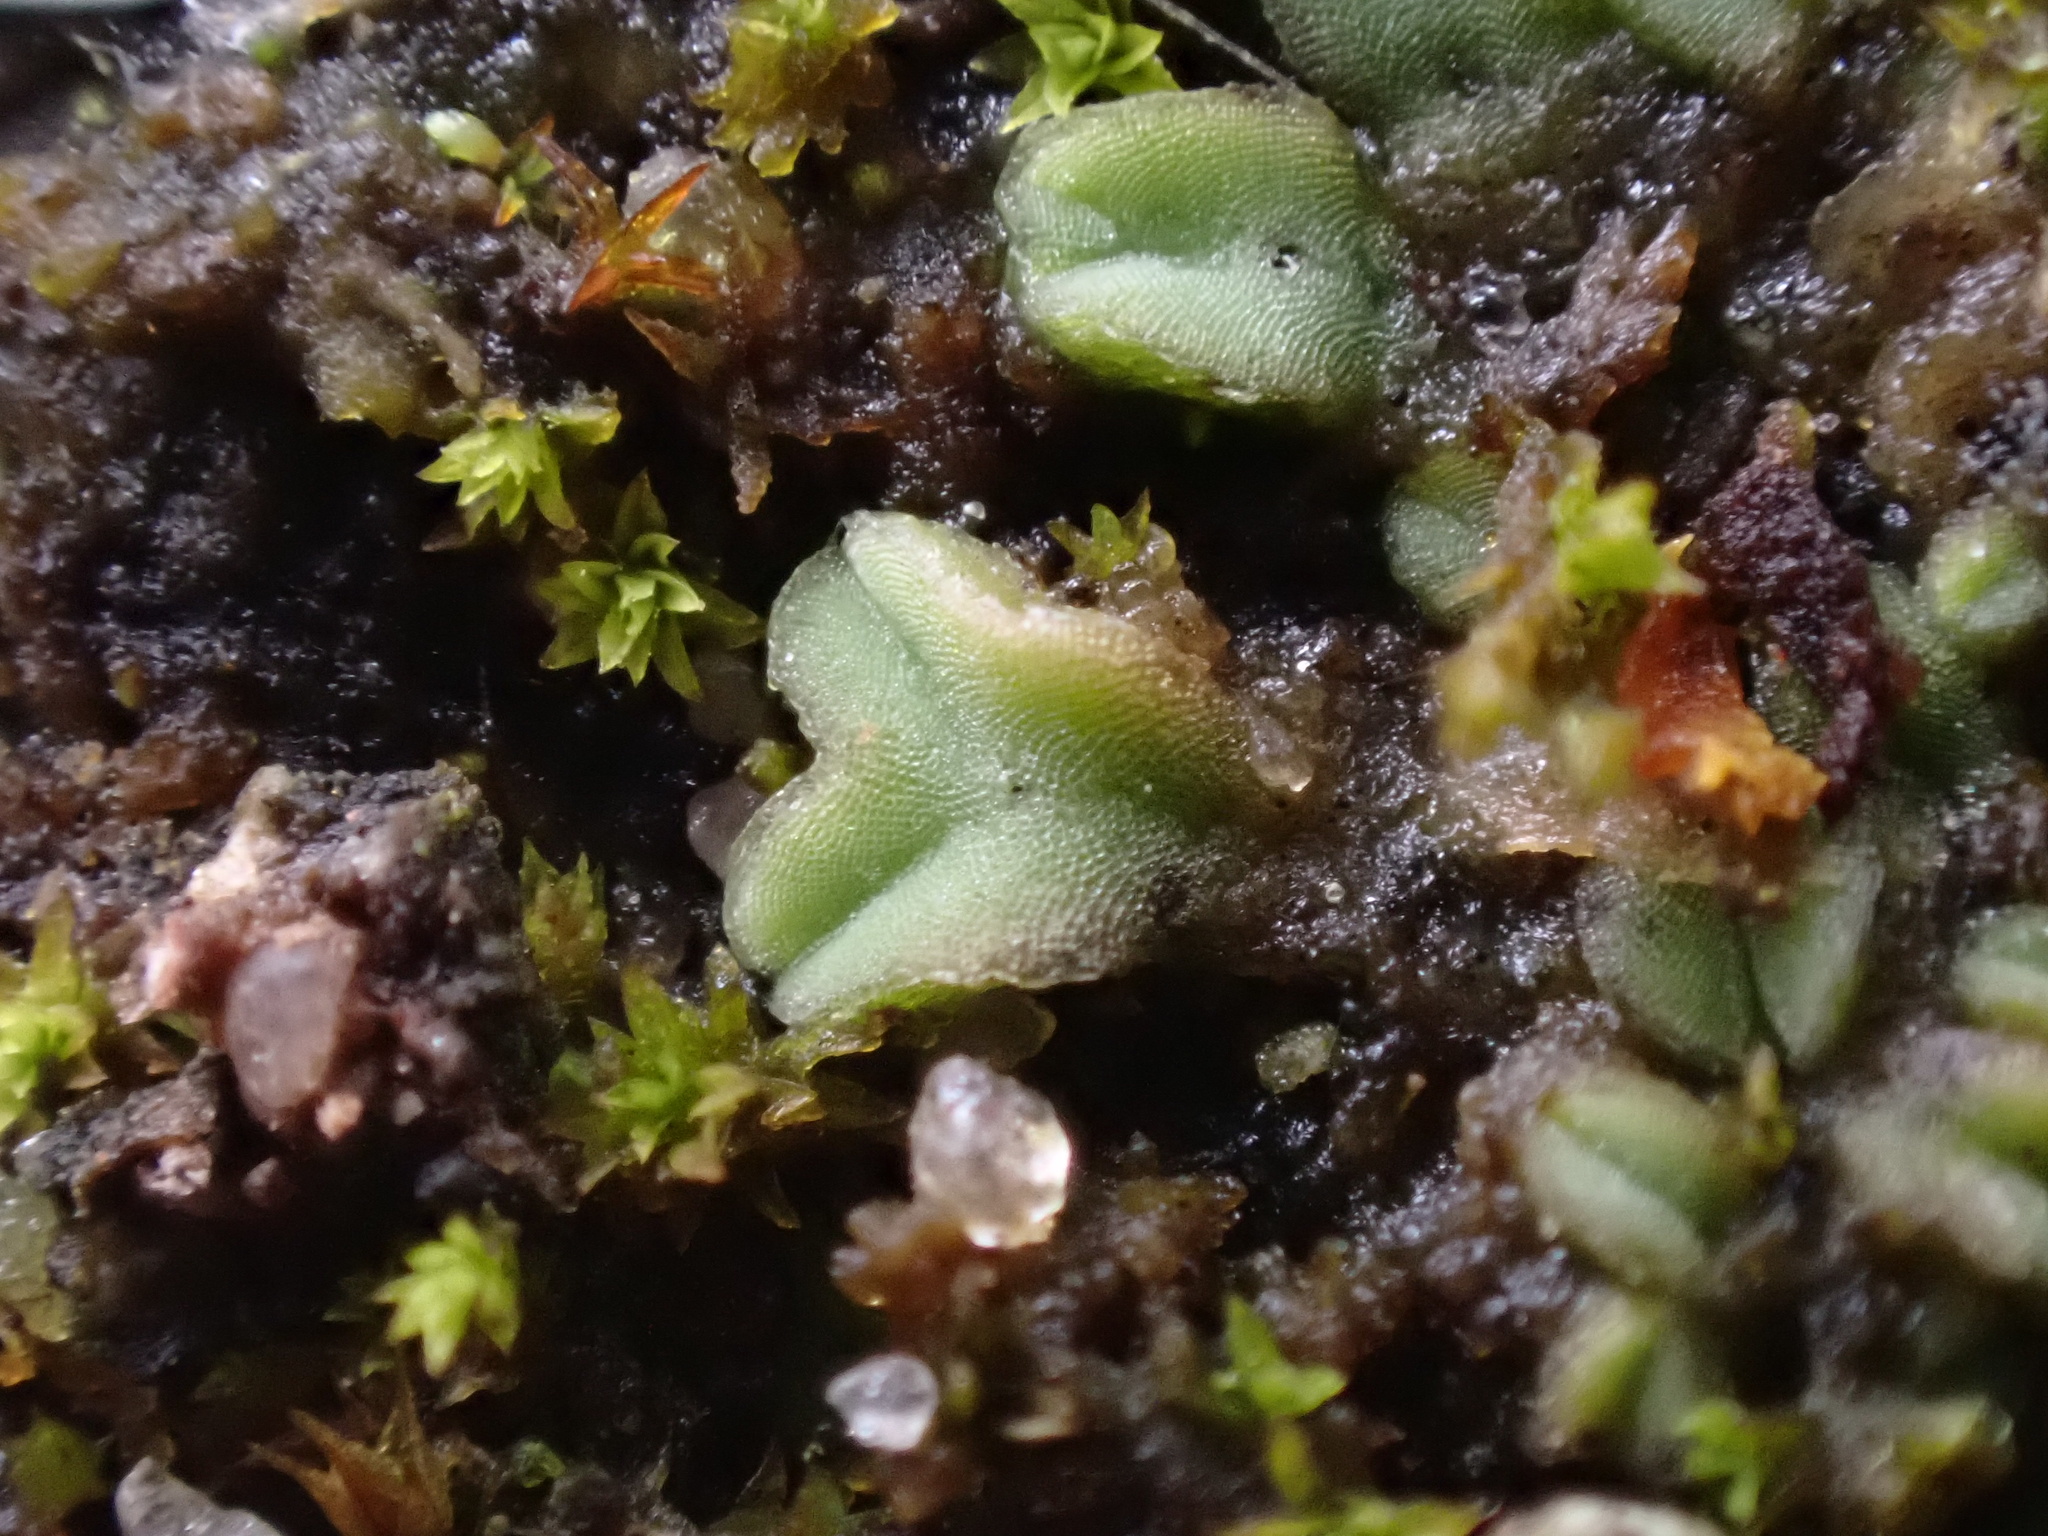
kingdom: Plantae
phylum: Marchantiophyta
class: Marchantiopsida
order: Marchantiales
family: Ricciaceae
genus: Riccia
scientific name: Riccia sorocarpa
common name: Common crystalwort
